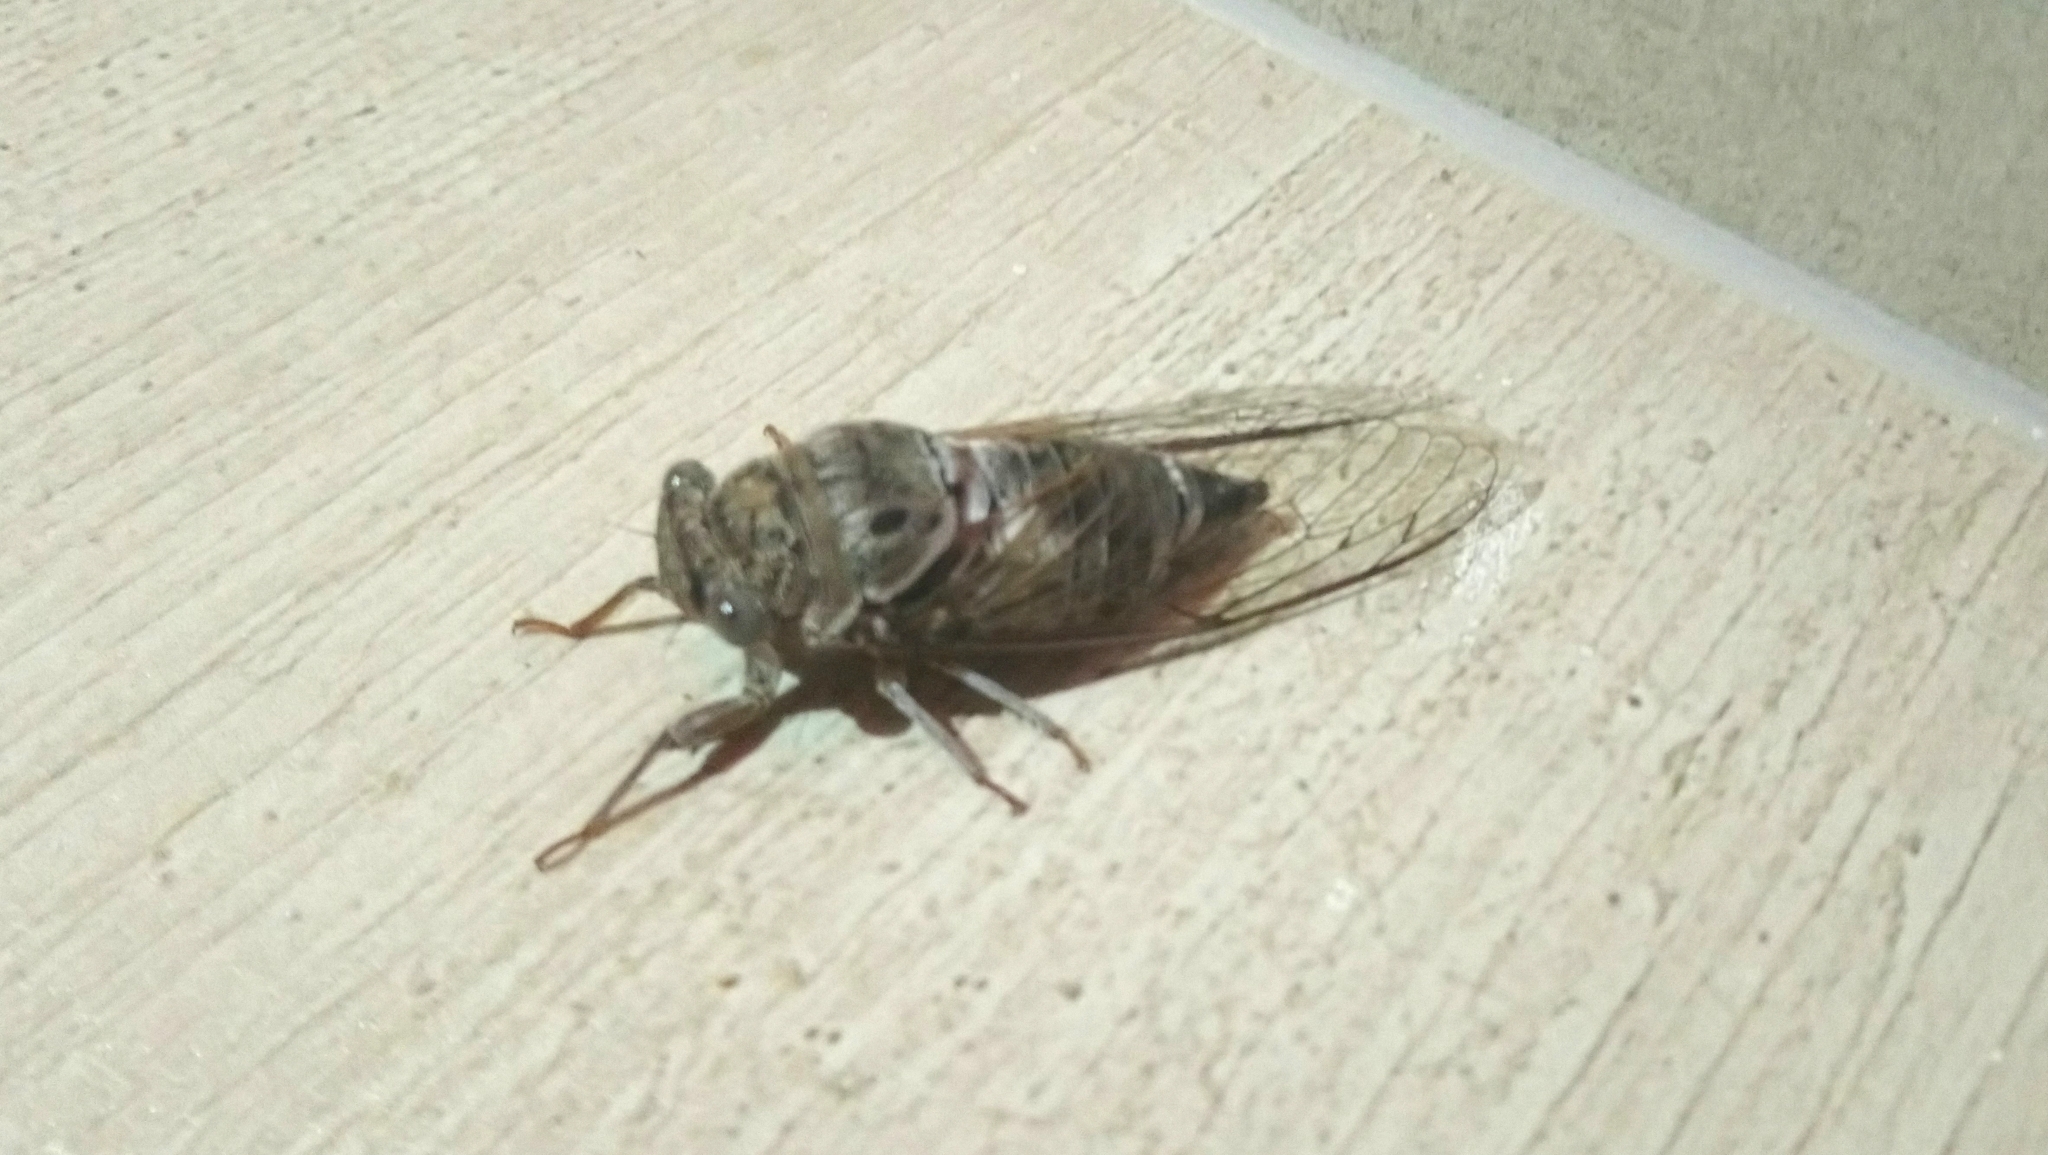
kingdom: Animalia
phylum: Arthropoda
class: Insecta
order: Hemiptera
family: Cicadidae
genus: Lyristes
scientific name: Lyristes
